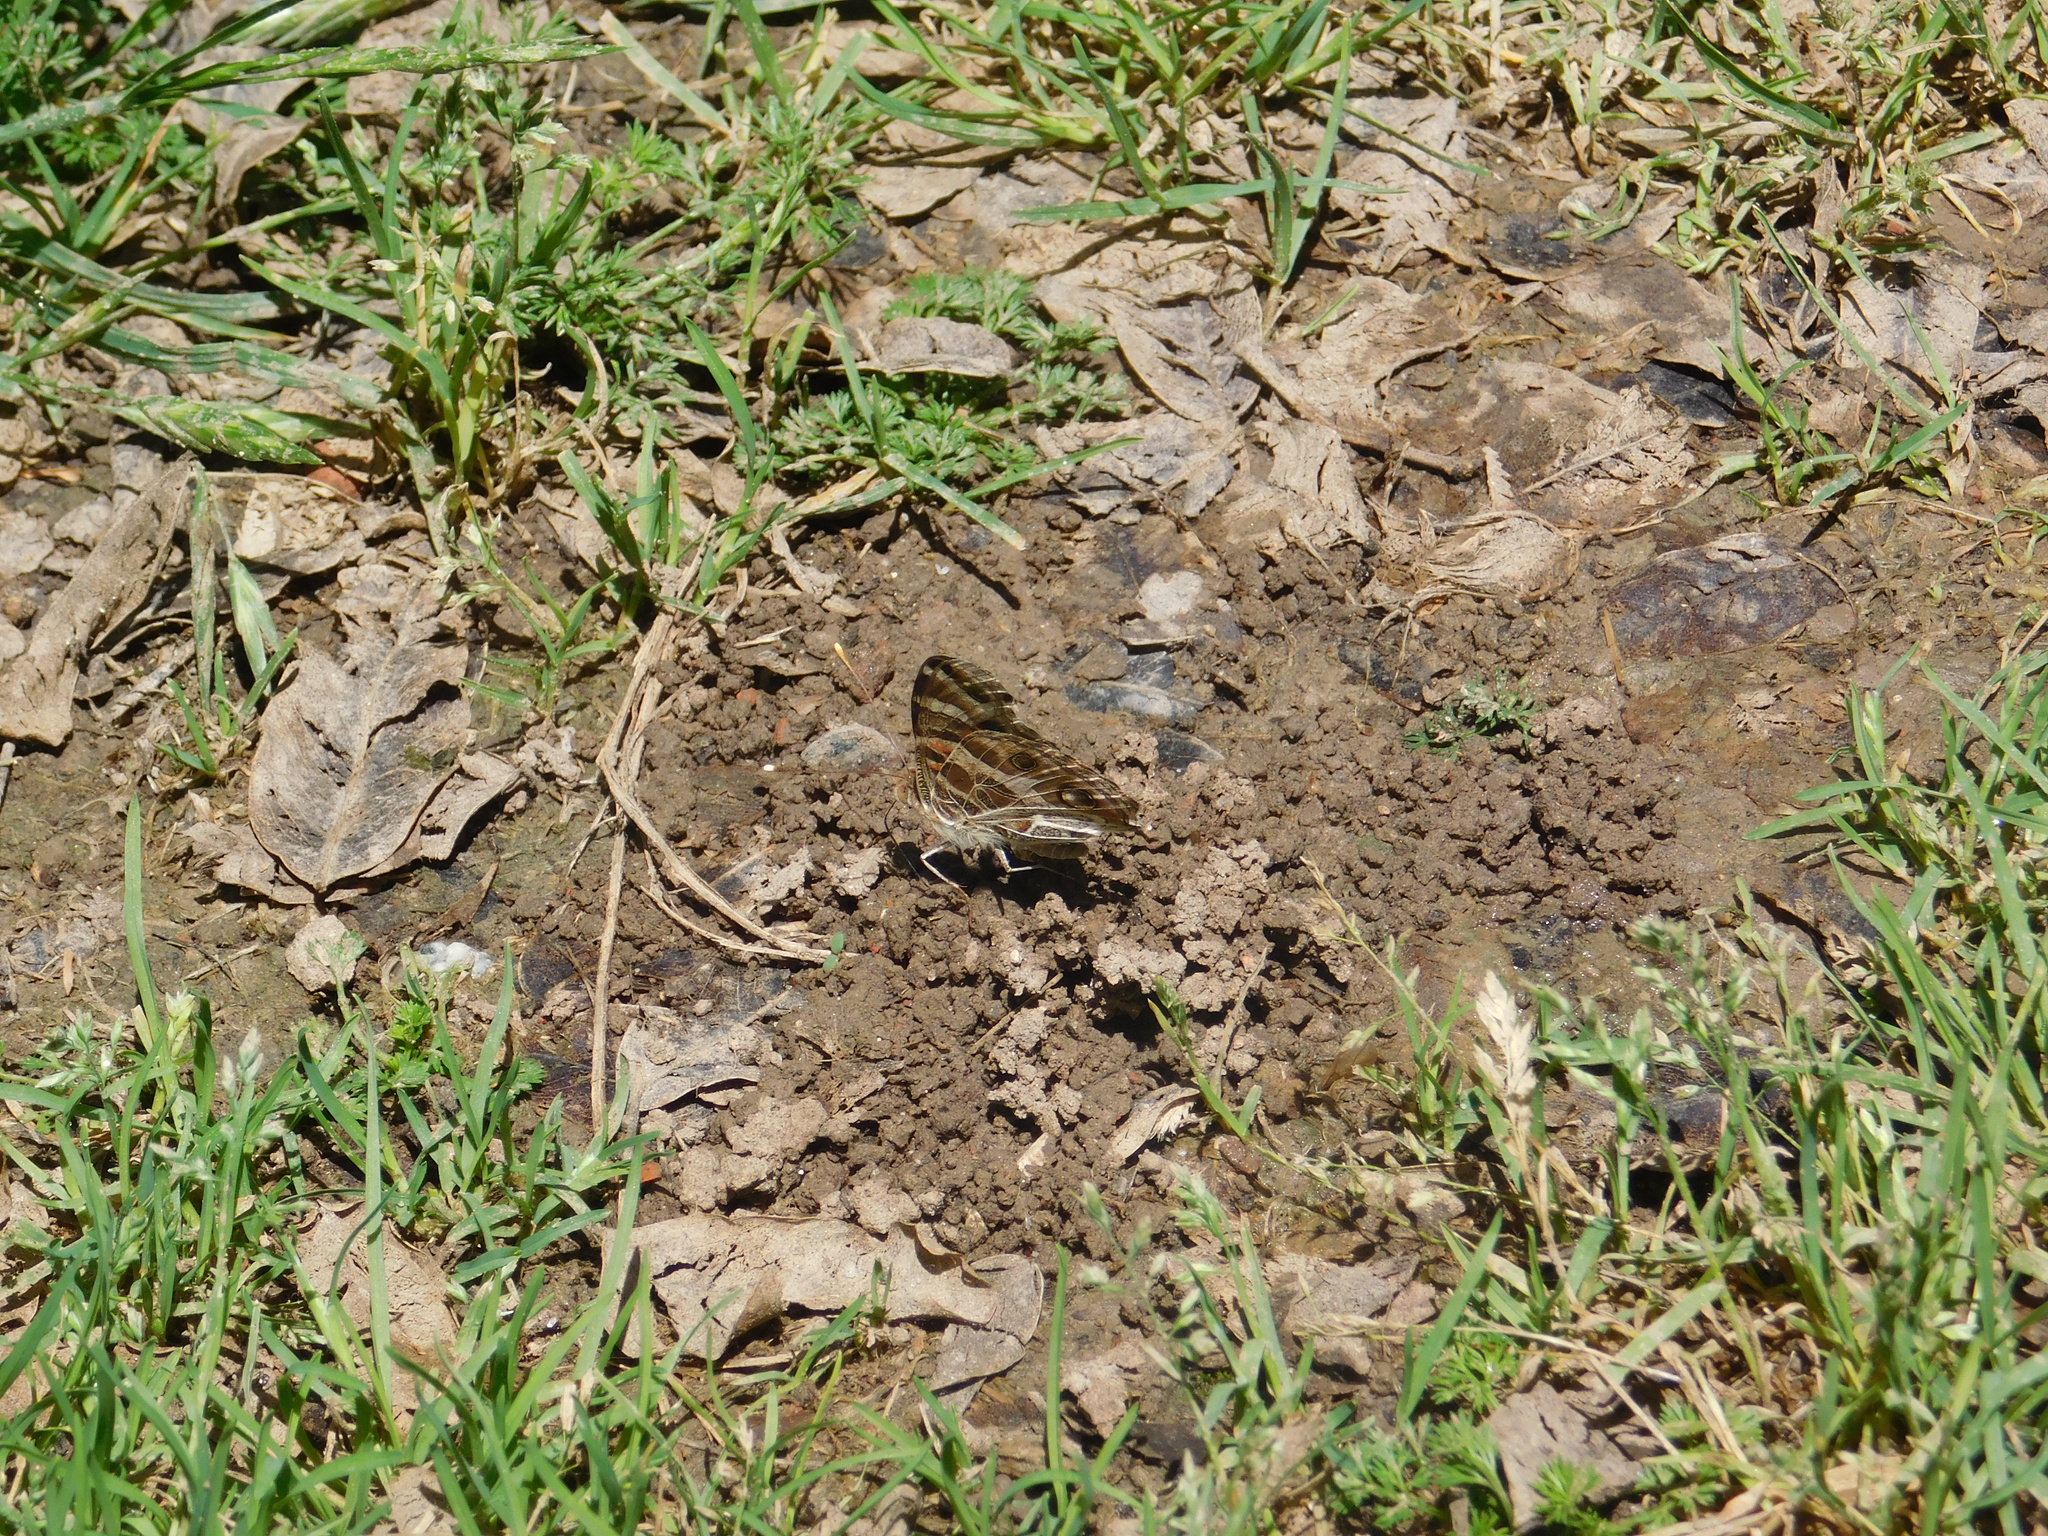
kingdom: Animalia
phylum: Arthropoda
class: Insecta
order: Lepidoptera
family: Nymphalidae
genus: Vanessa
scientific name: Vanessa braziliensis
